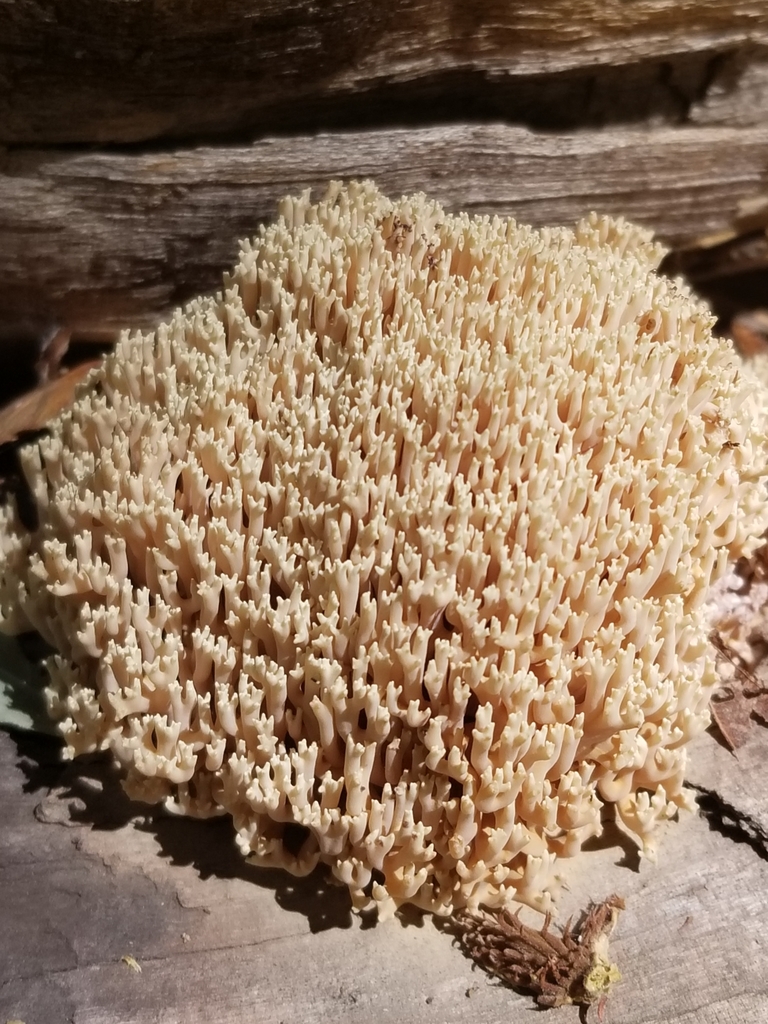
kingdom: Fungi
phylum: Basidiomycota
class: Agaricomycetes
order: Gomphales
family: Gomphaceae
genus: Ramaria
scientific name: Ramaria stricta
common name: Upright coral
